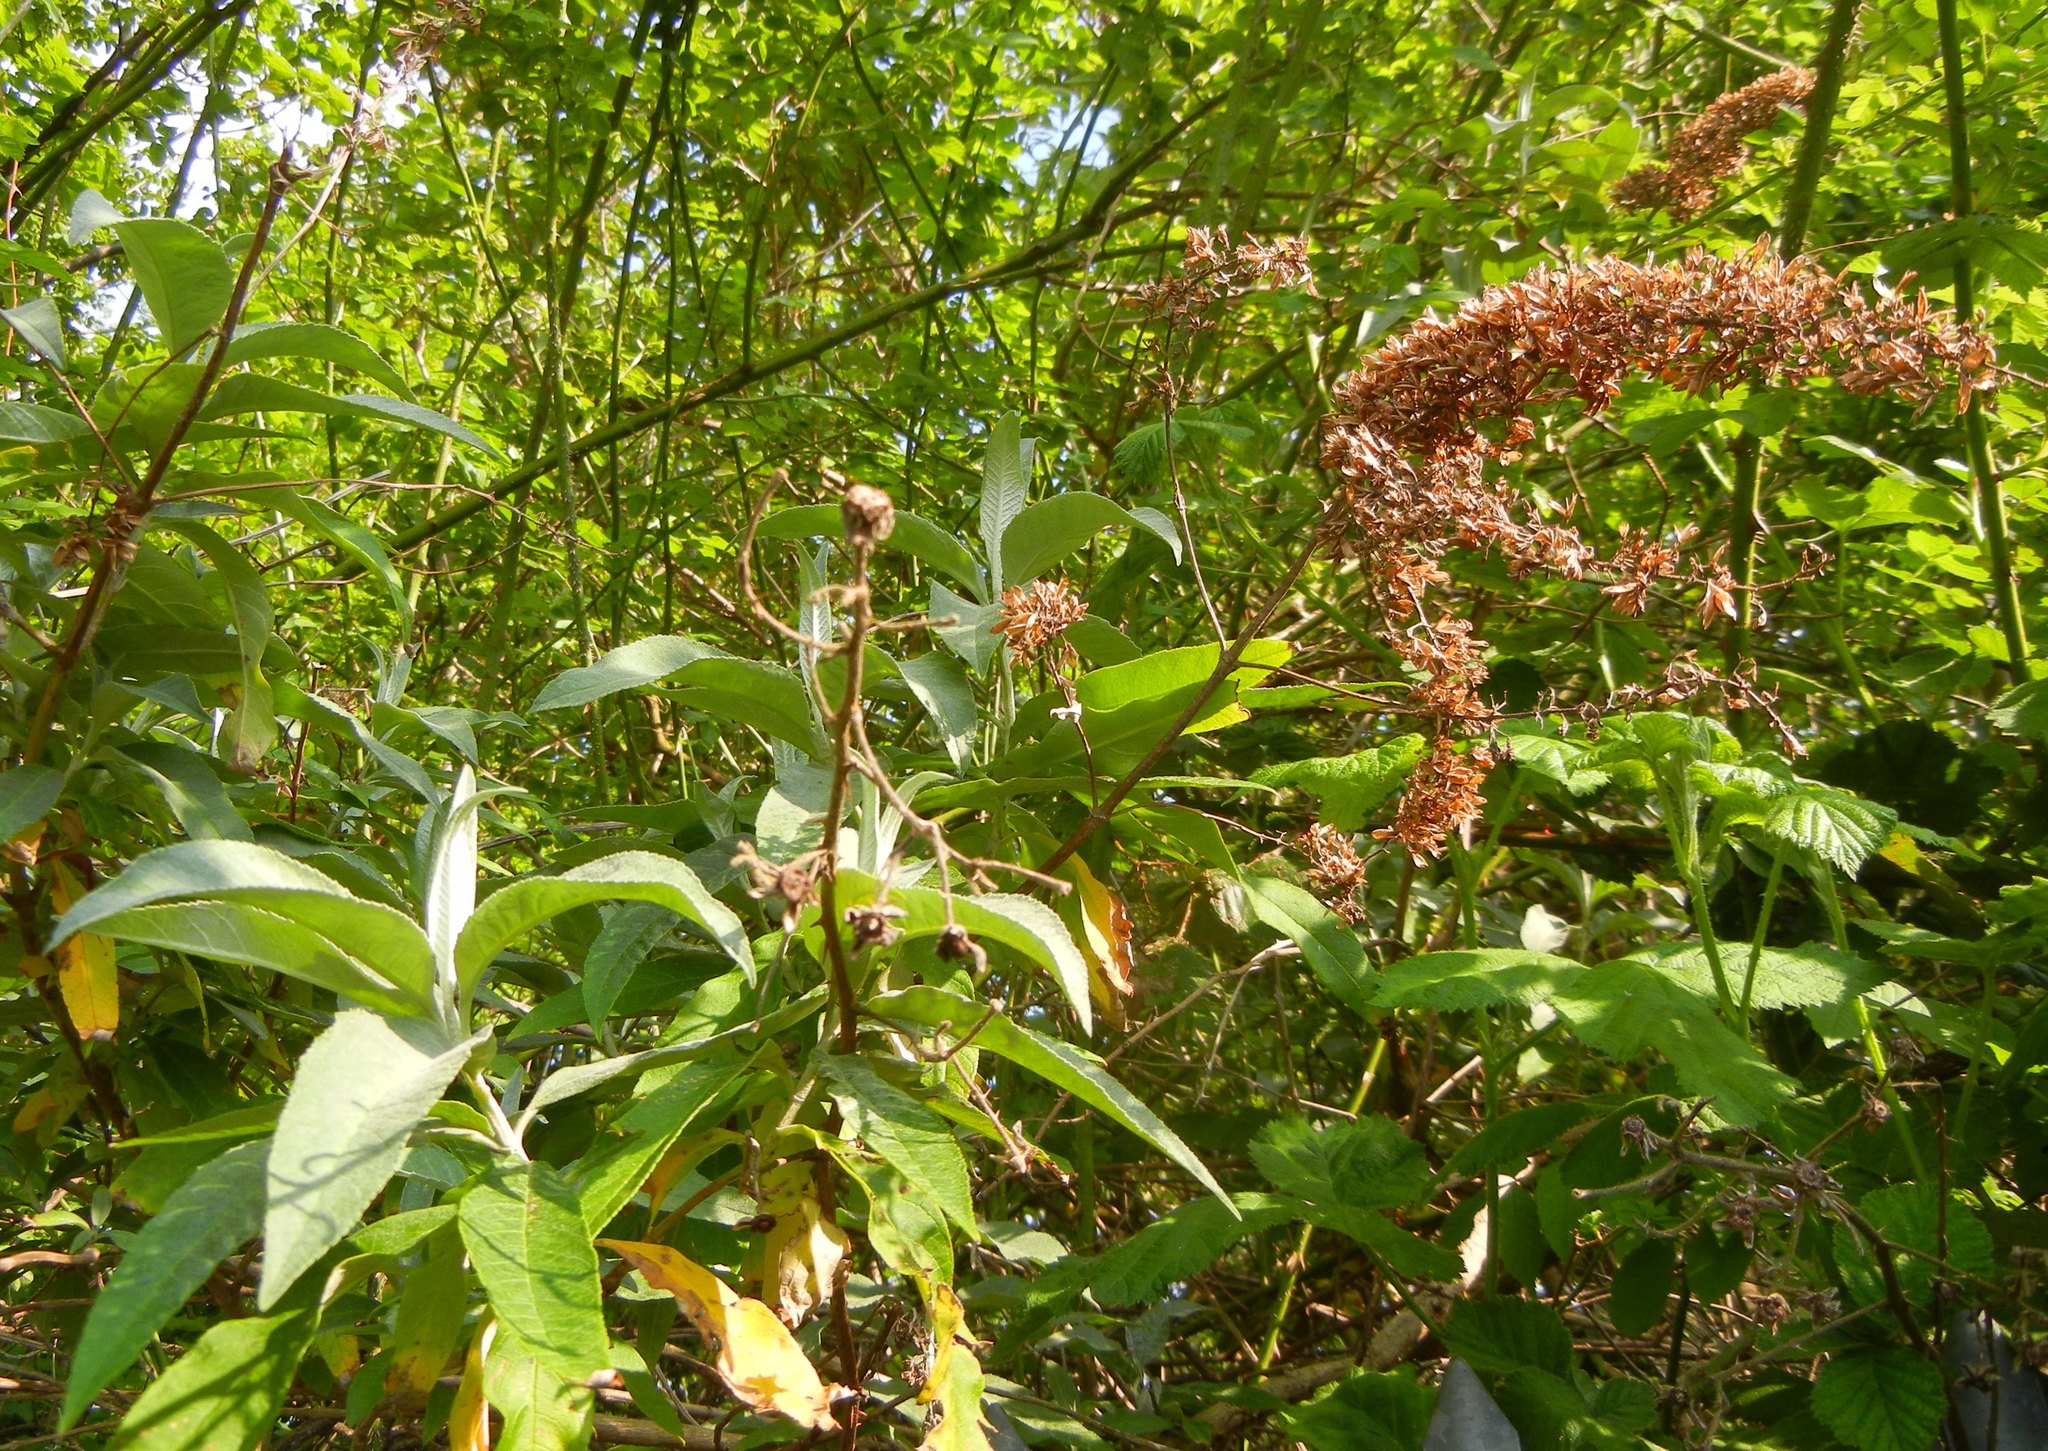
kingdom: Plantae
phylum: Tracheophyta
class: Magnoliopsida
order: Lamiales
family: Scrophulariaceae
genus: Buddleja
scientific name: Buddleja davidii
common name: Butterfly-bush
